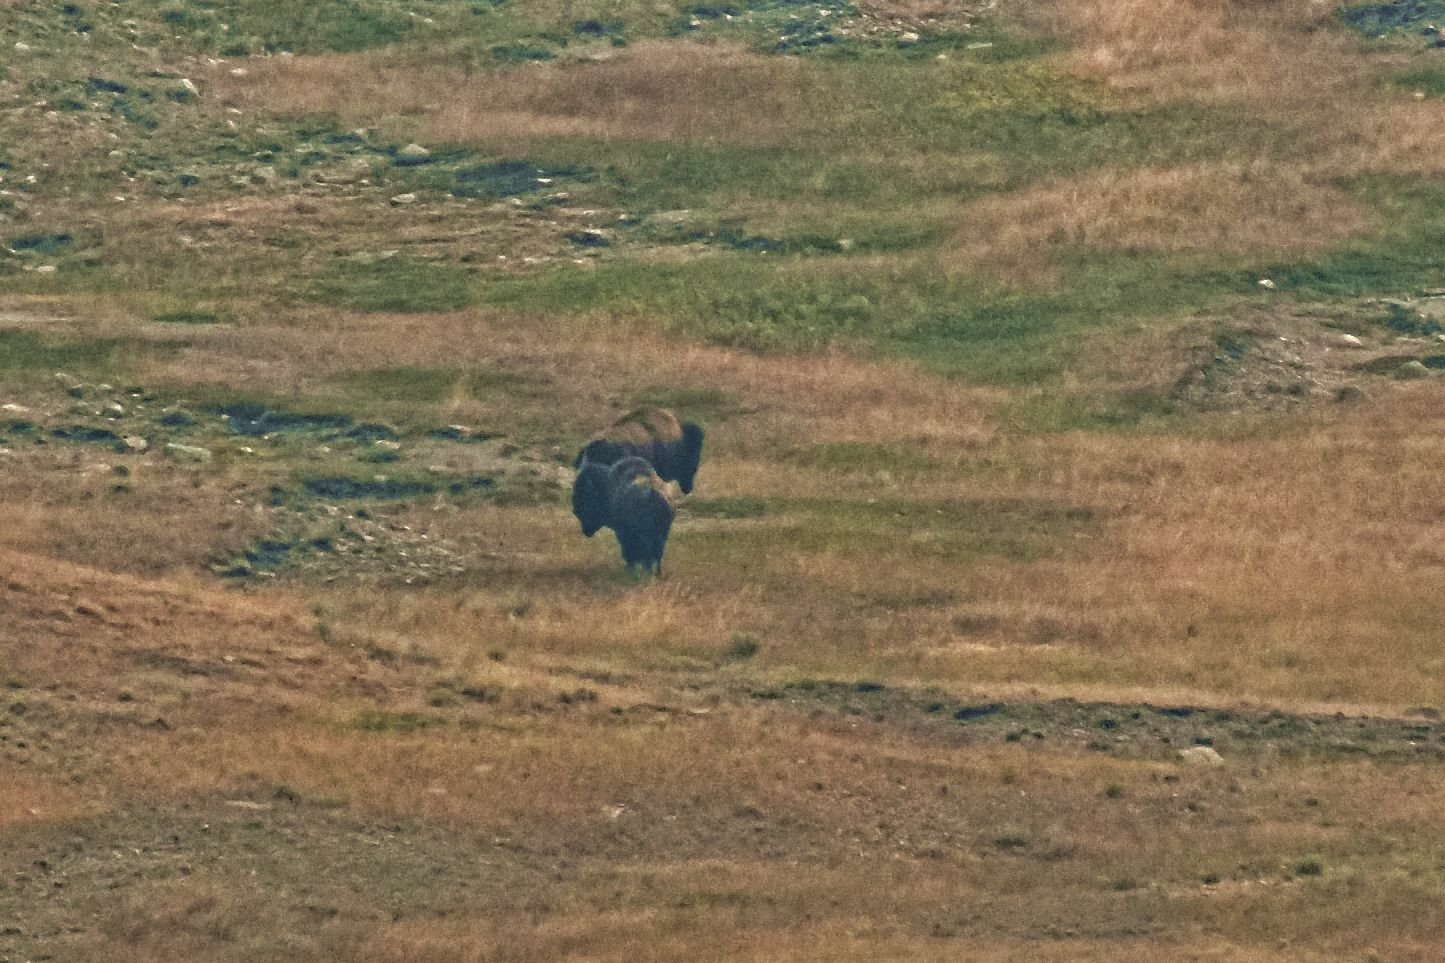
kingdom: Animalia
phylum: Chordata
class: Mammalia
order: Artiodactyla
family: Bovidae
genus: Bison
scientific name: Bison bison
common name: American bison
